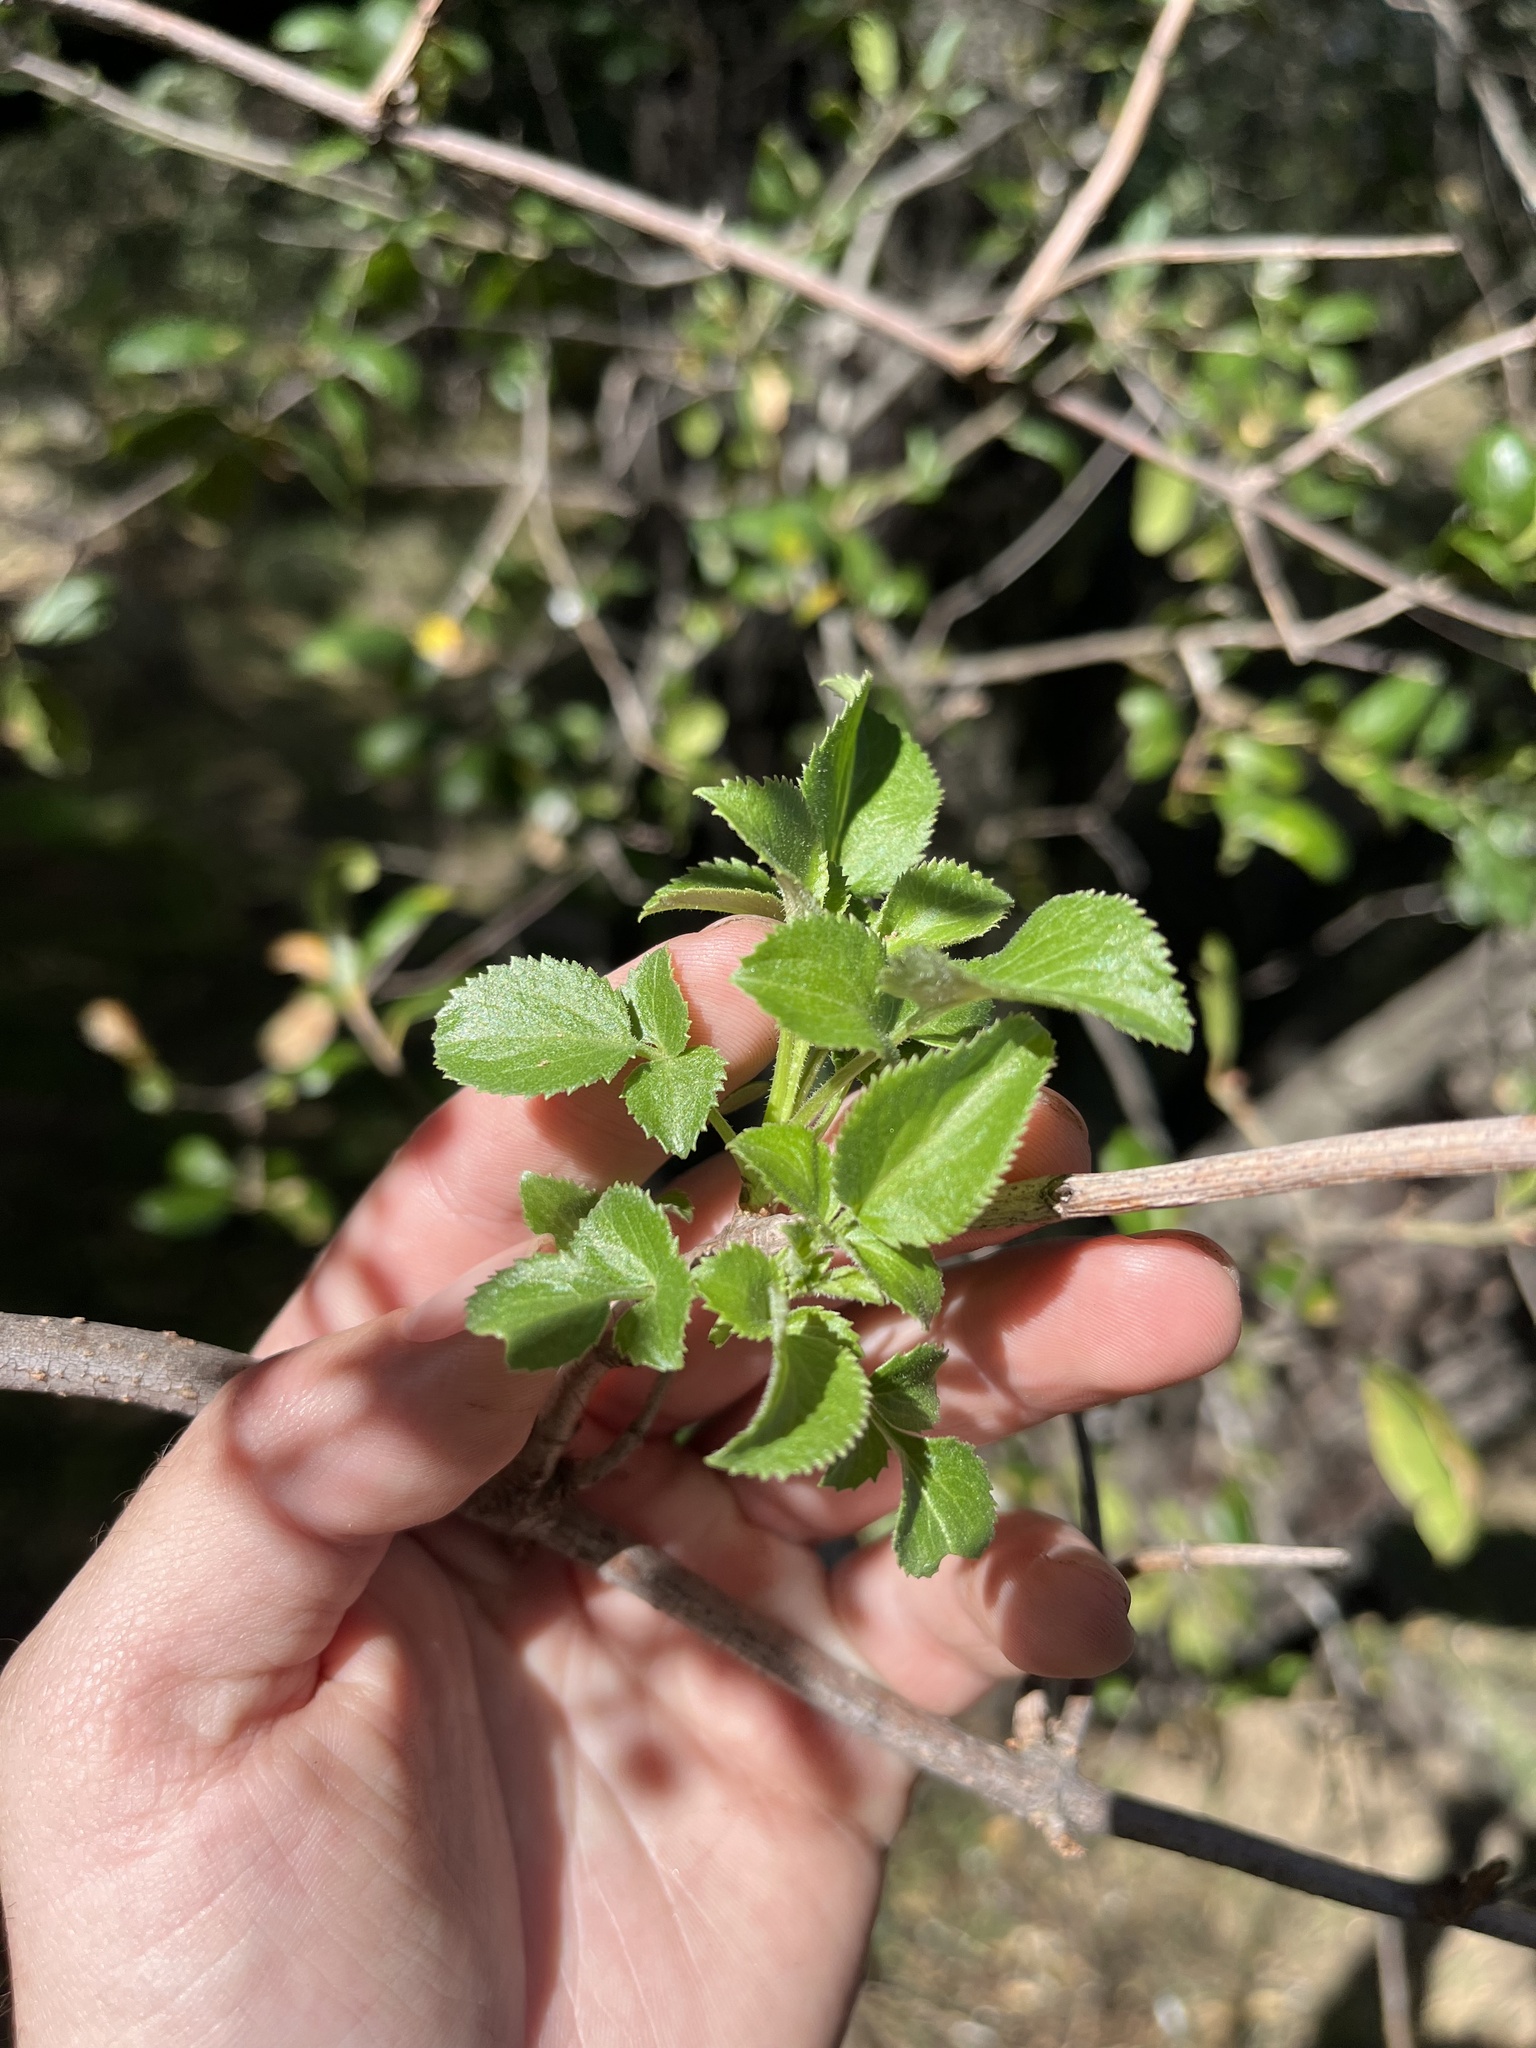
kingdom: Plantae
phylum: Tracheophyta
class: Magnoliopsida
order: Dipsacales
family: Viburnaceae
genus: Sambucus
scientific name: Sambucus cerulea
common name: Blue elder
